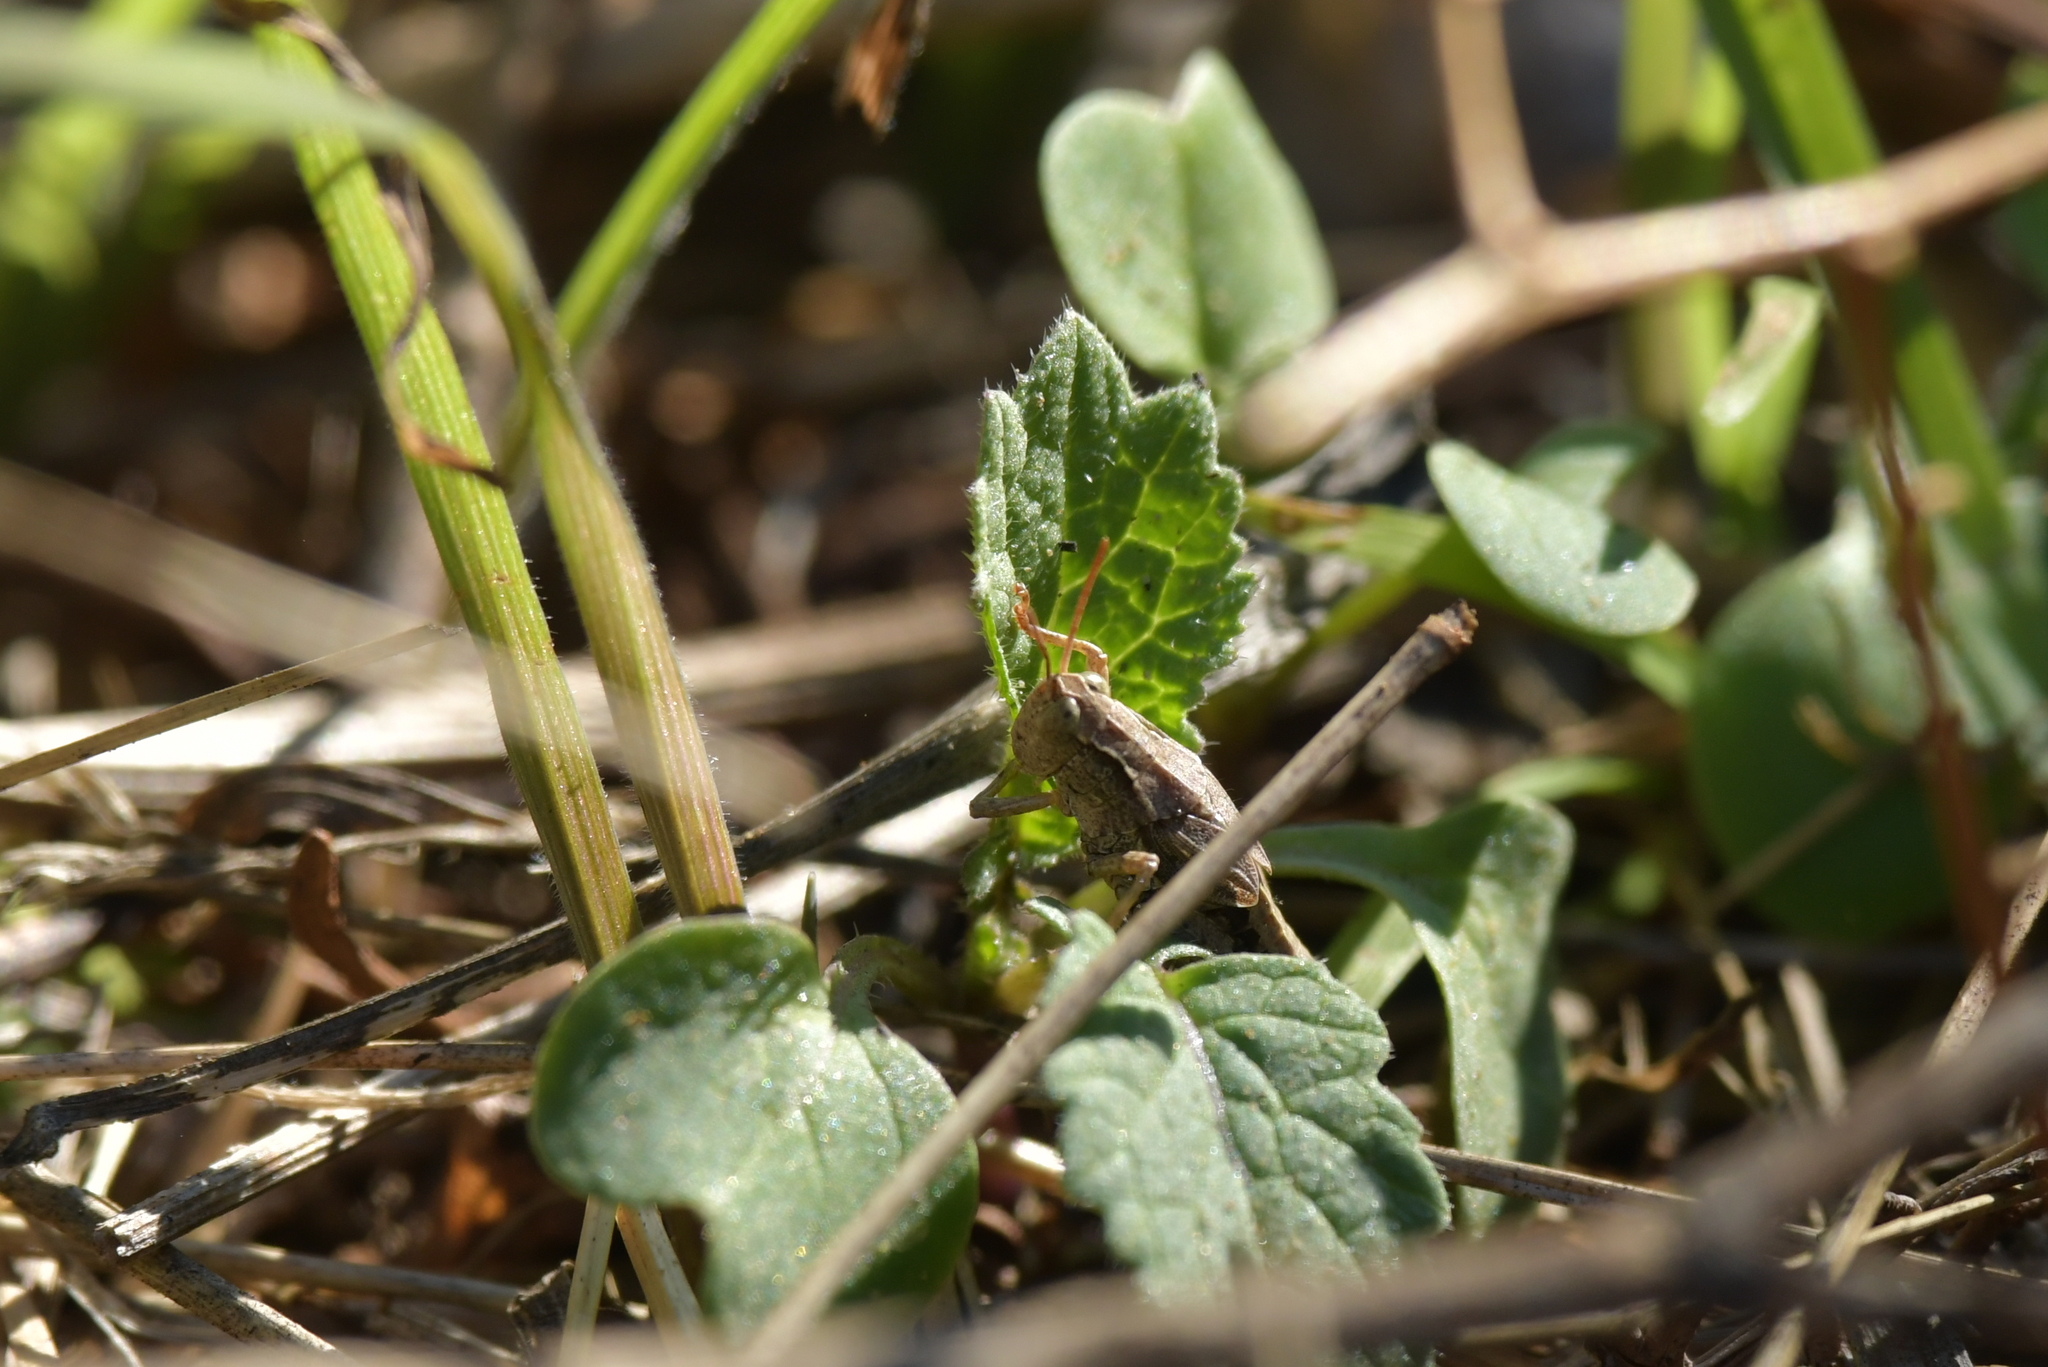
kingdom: Animalia
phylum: Arthropoda
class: Insecta
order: Orthoptera
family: Acrididae
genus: Phaulacridium
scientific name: Phaulacridium marginale
